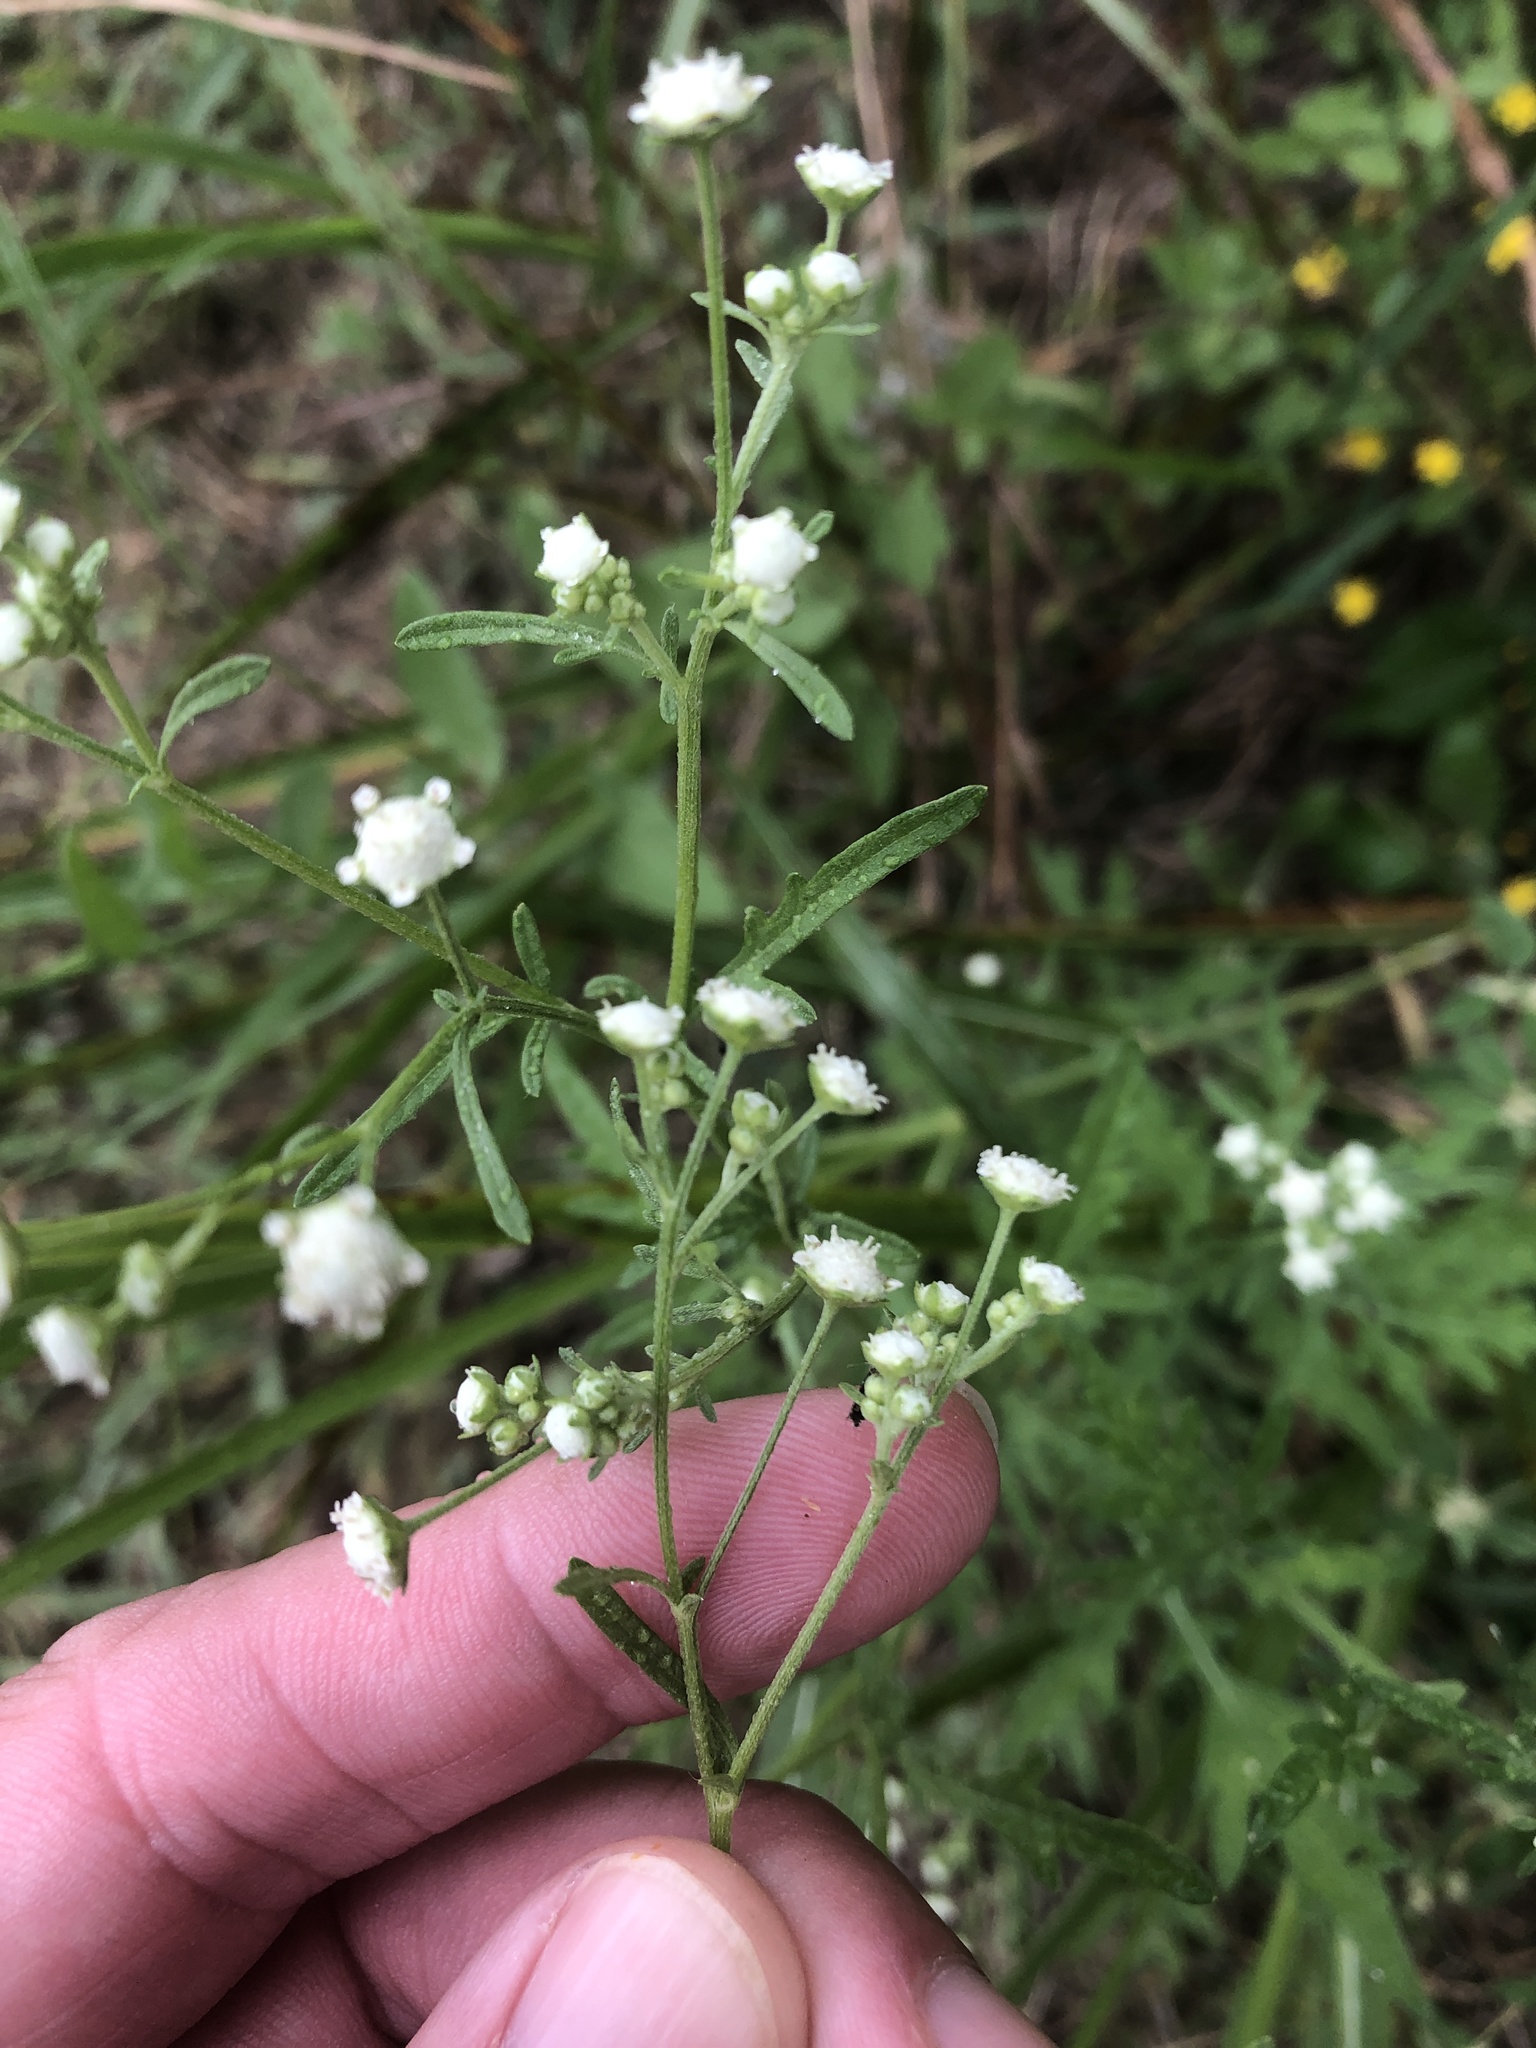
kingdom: Plantae
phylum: Tracheophyta
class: Magnoliopsida
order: Asterales
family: Asteraceae
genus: Parthenium
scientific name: Parthenium hysterophorus
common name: Santa maria feverfew
